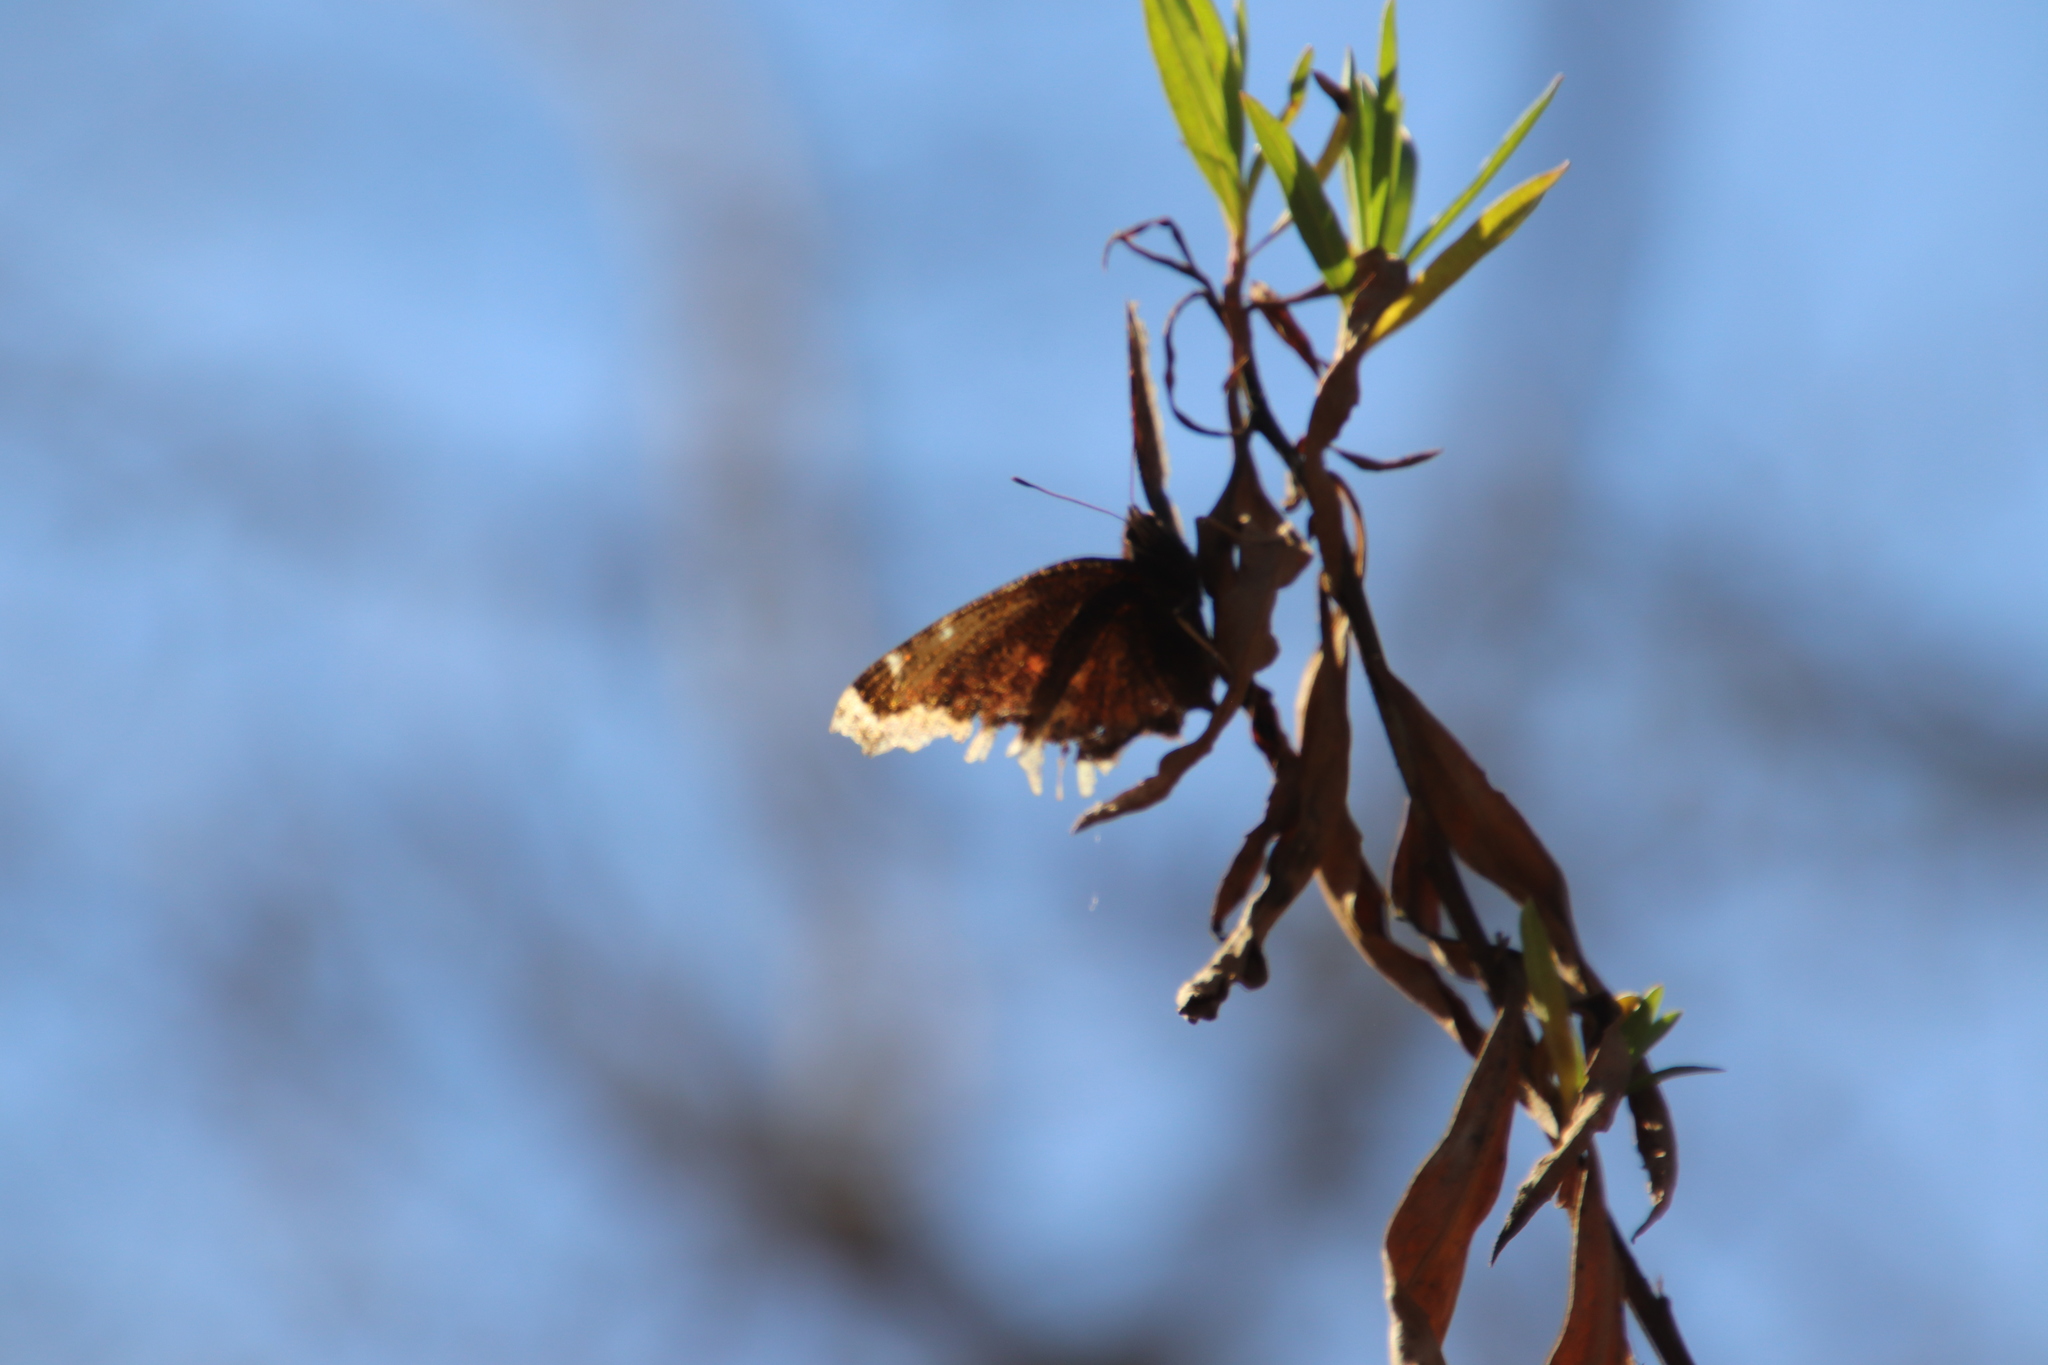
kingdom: Animalia
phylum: Arthropoda
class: Insecta
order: Lepidoptera
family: Nymphalidae
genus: Nymphalis
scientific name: Nymphalis antiopa
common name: Camberwell beauty
